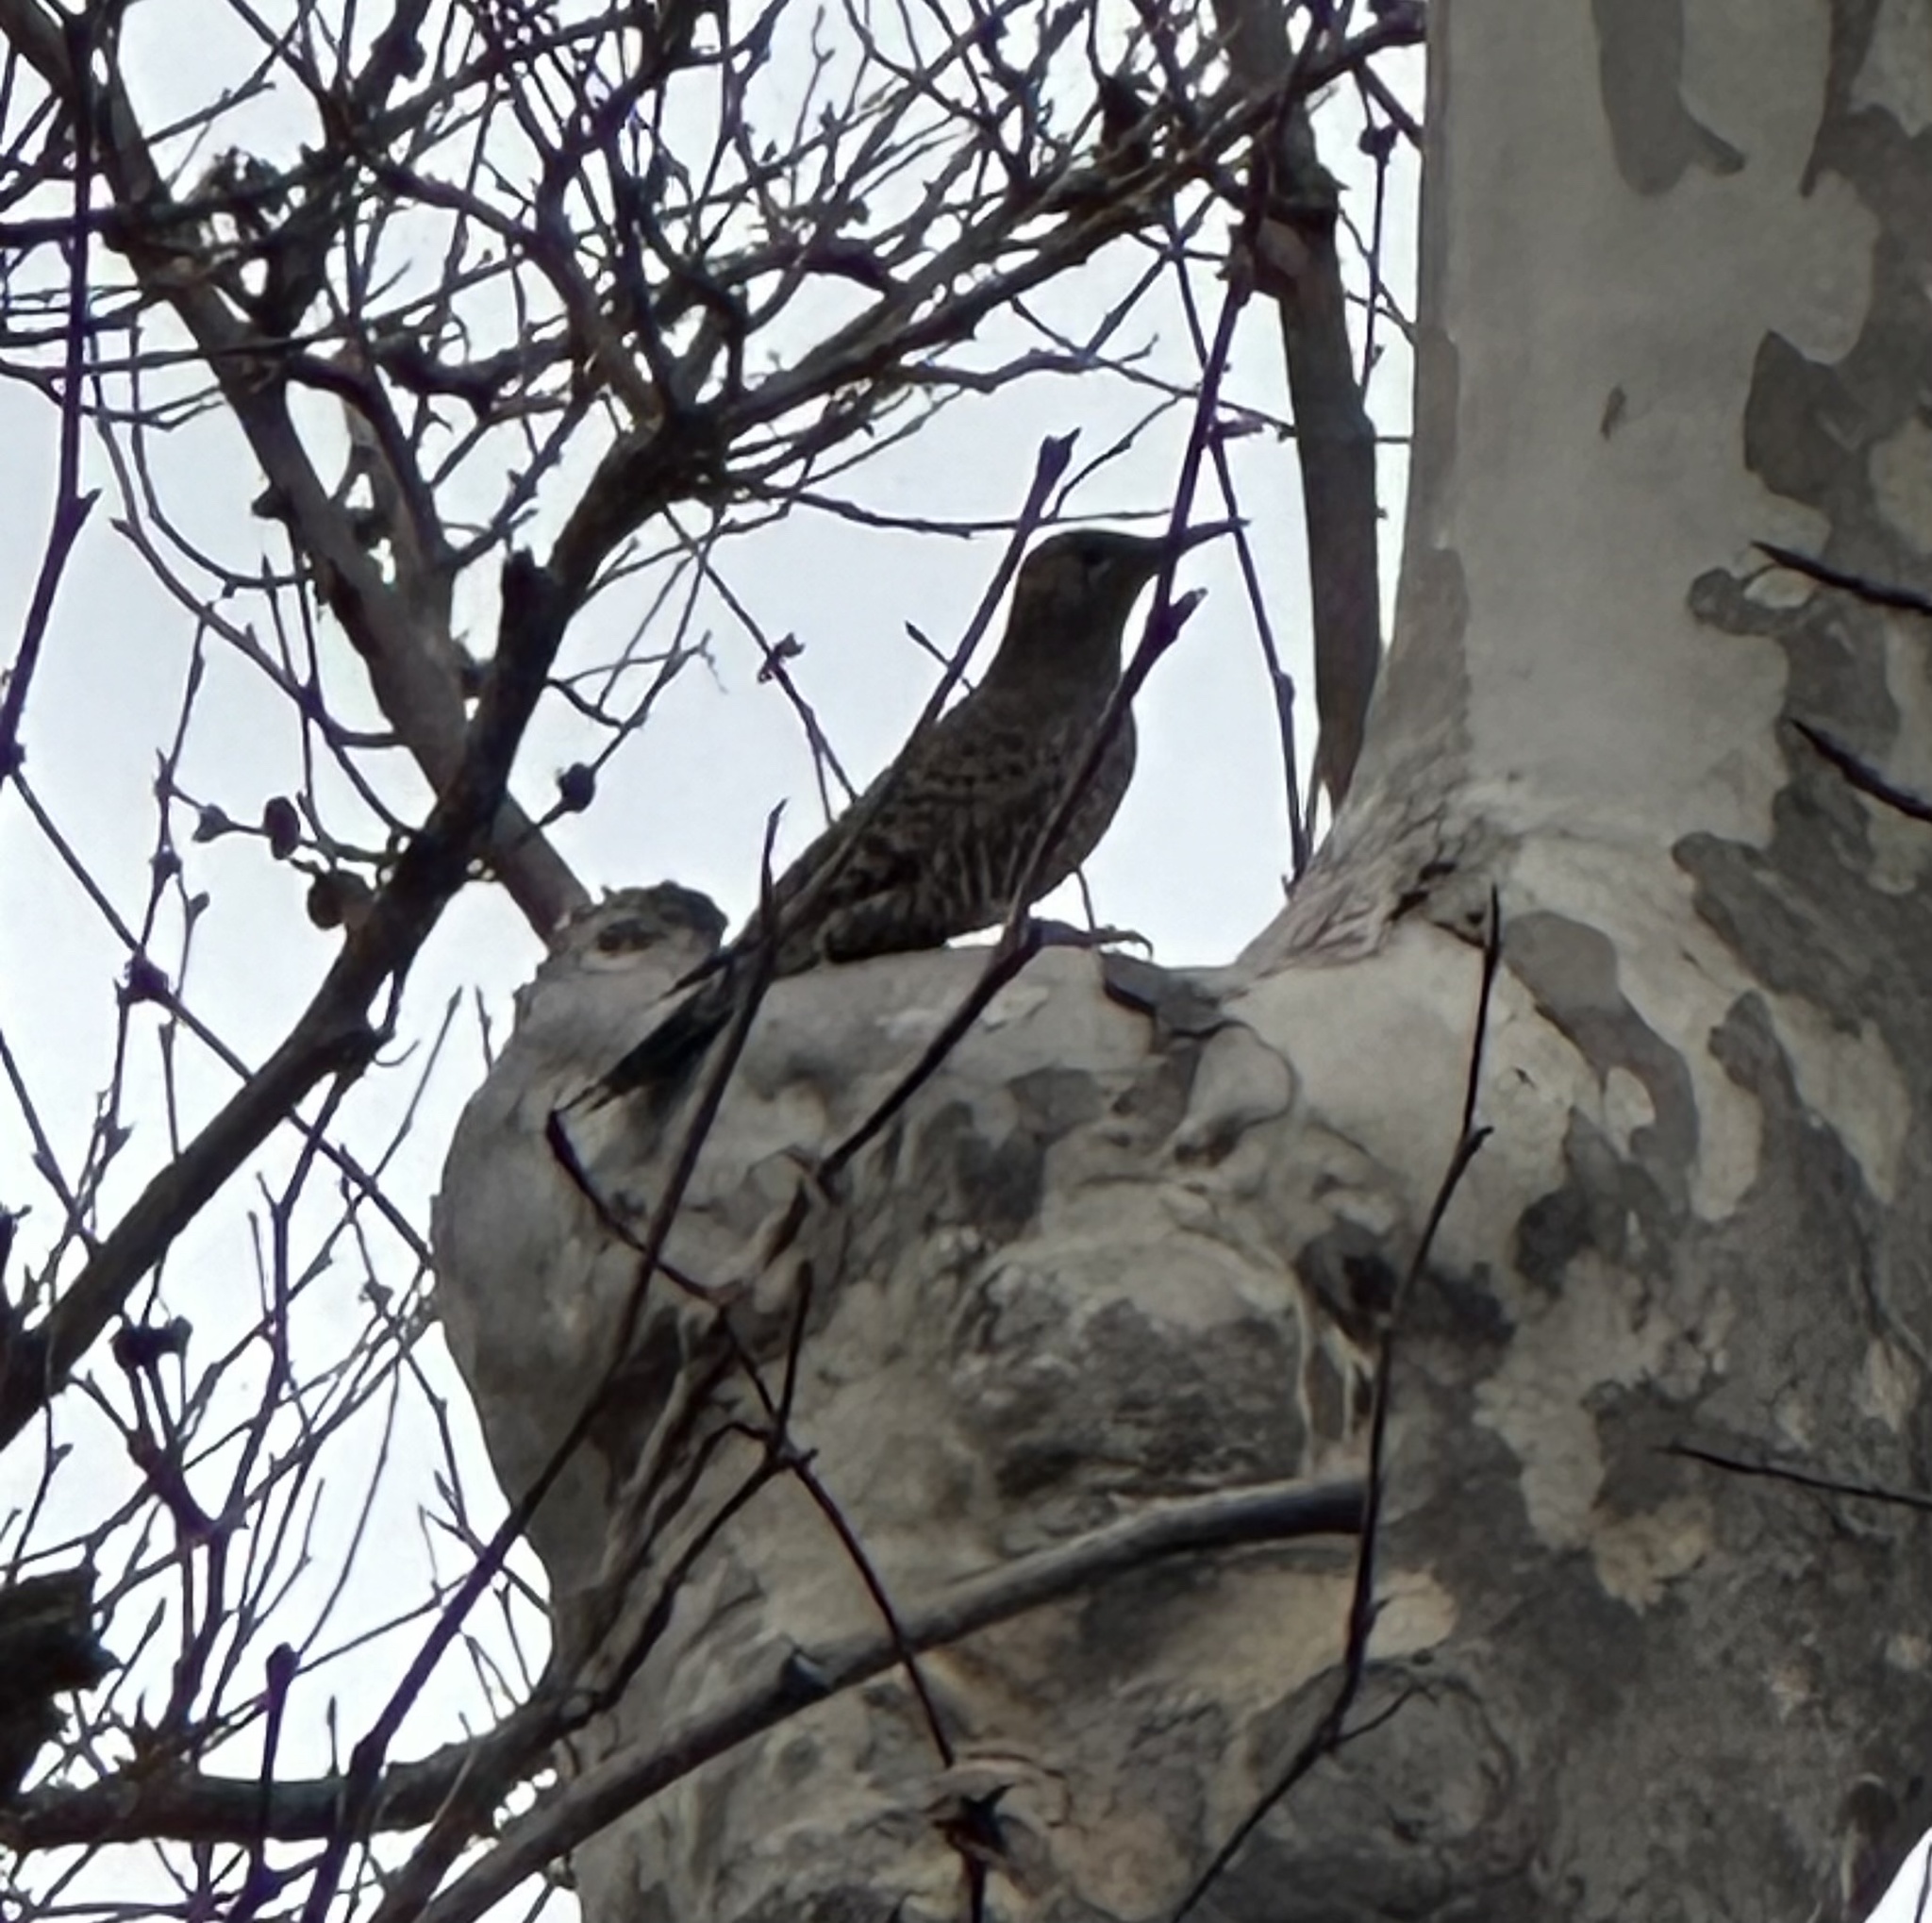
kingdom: Animalia
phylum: Chordata
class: Aves
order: Piciformes
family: Picidae
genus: Colaptes
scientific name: Colaptes auratus
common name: Northern flicker
